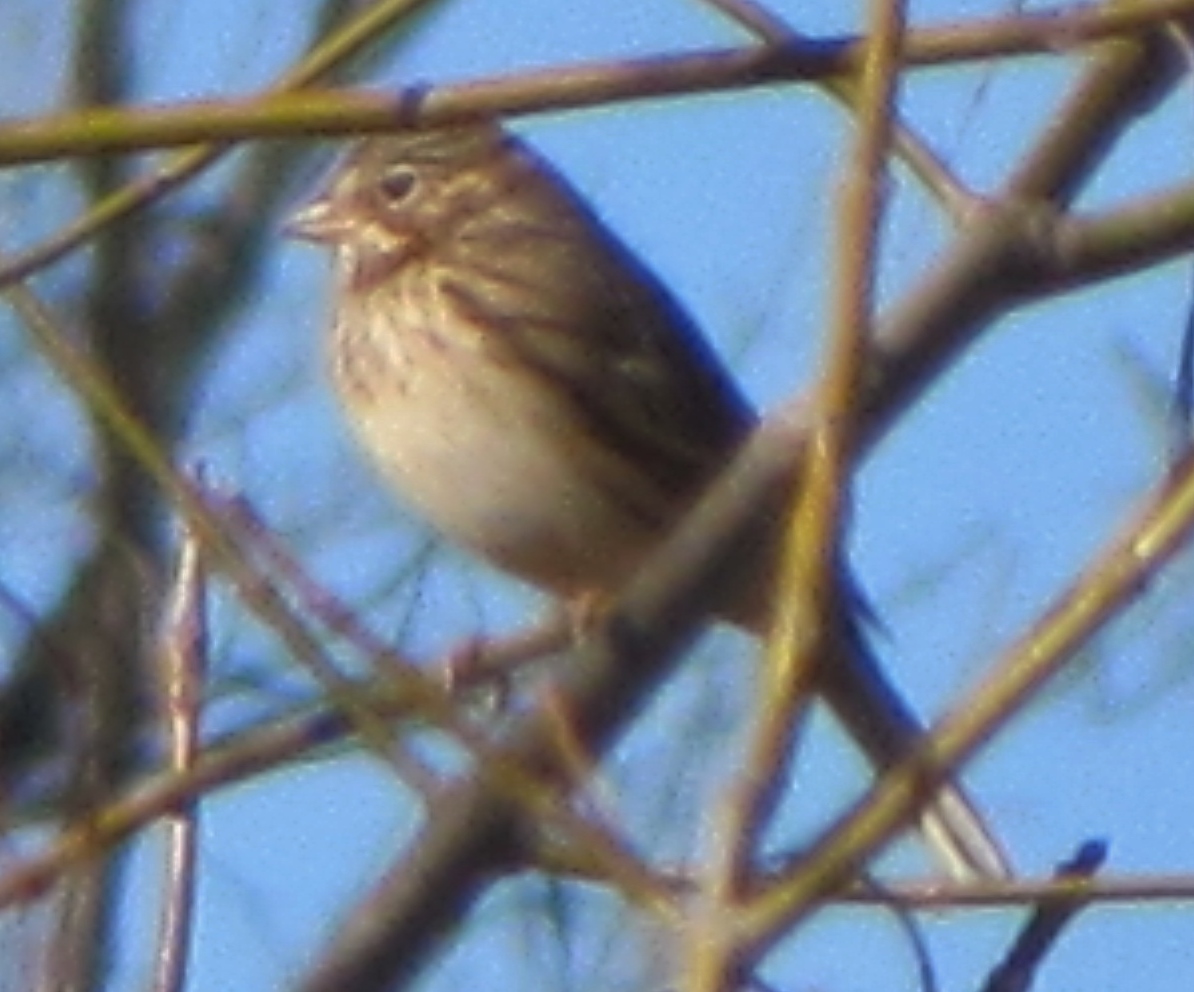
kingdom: Animalia
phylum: Chordata
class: Aves
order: Passeriformes
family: Passerellidae
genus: Pooecetes
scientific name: Pooecetes gramineus
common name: Vesper sparrow
